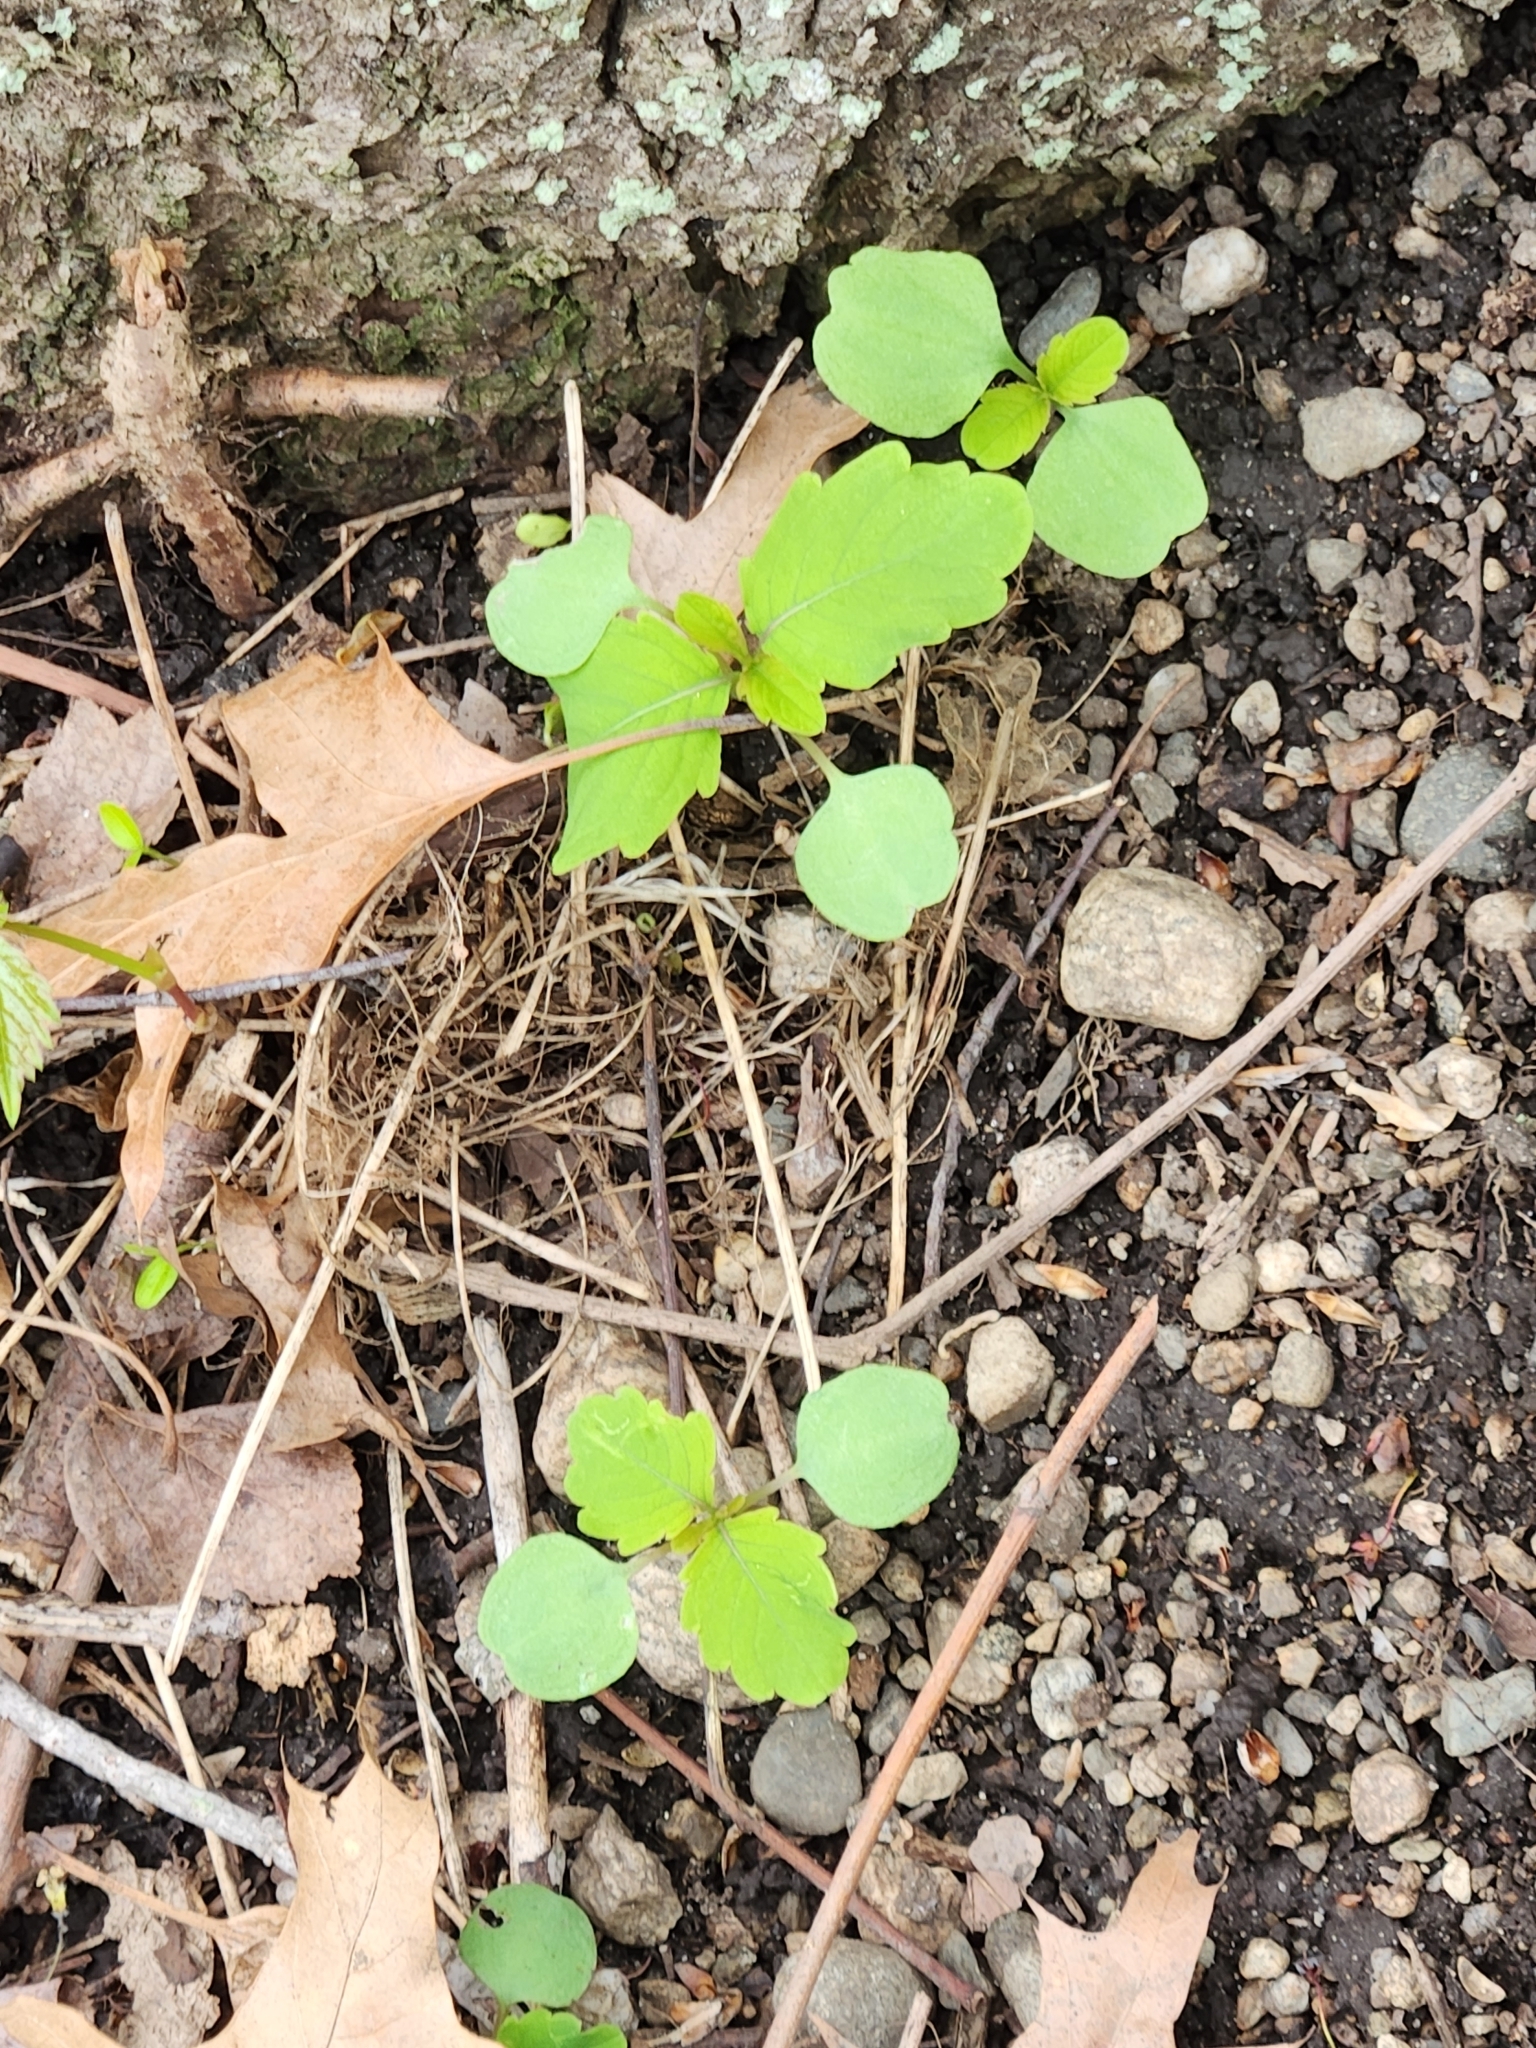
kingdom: Plantae
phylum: Tracheophyta
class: Magnoliopsida
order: Ericales
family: Balsaminaceae
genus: Impatiens
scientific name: Impatiens capensis
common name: Orange balsam
